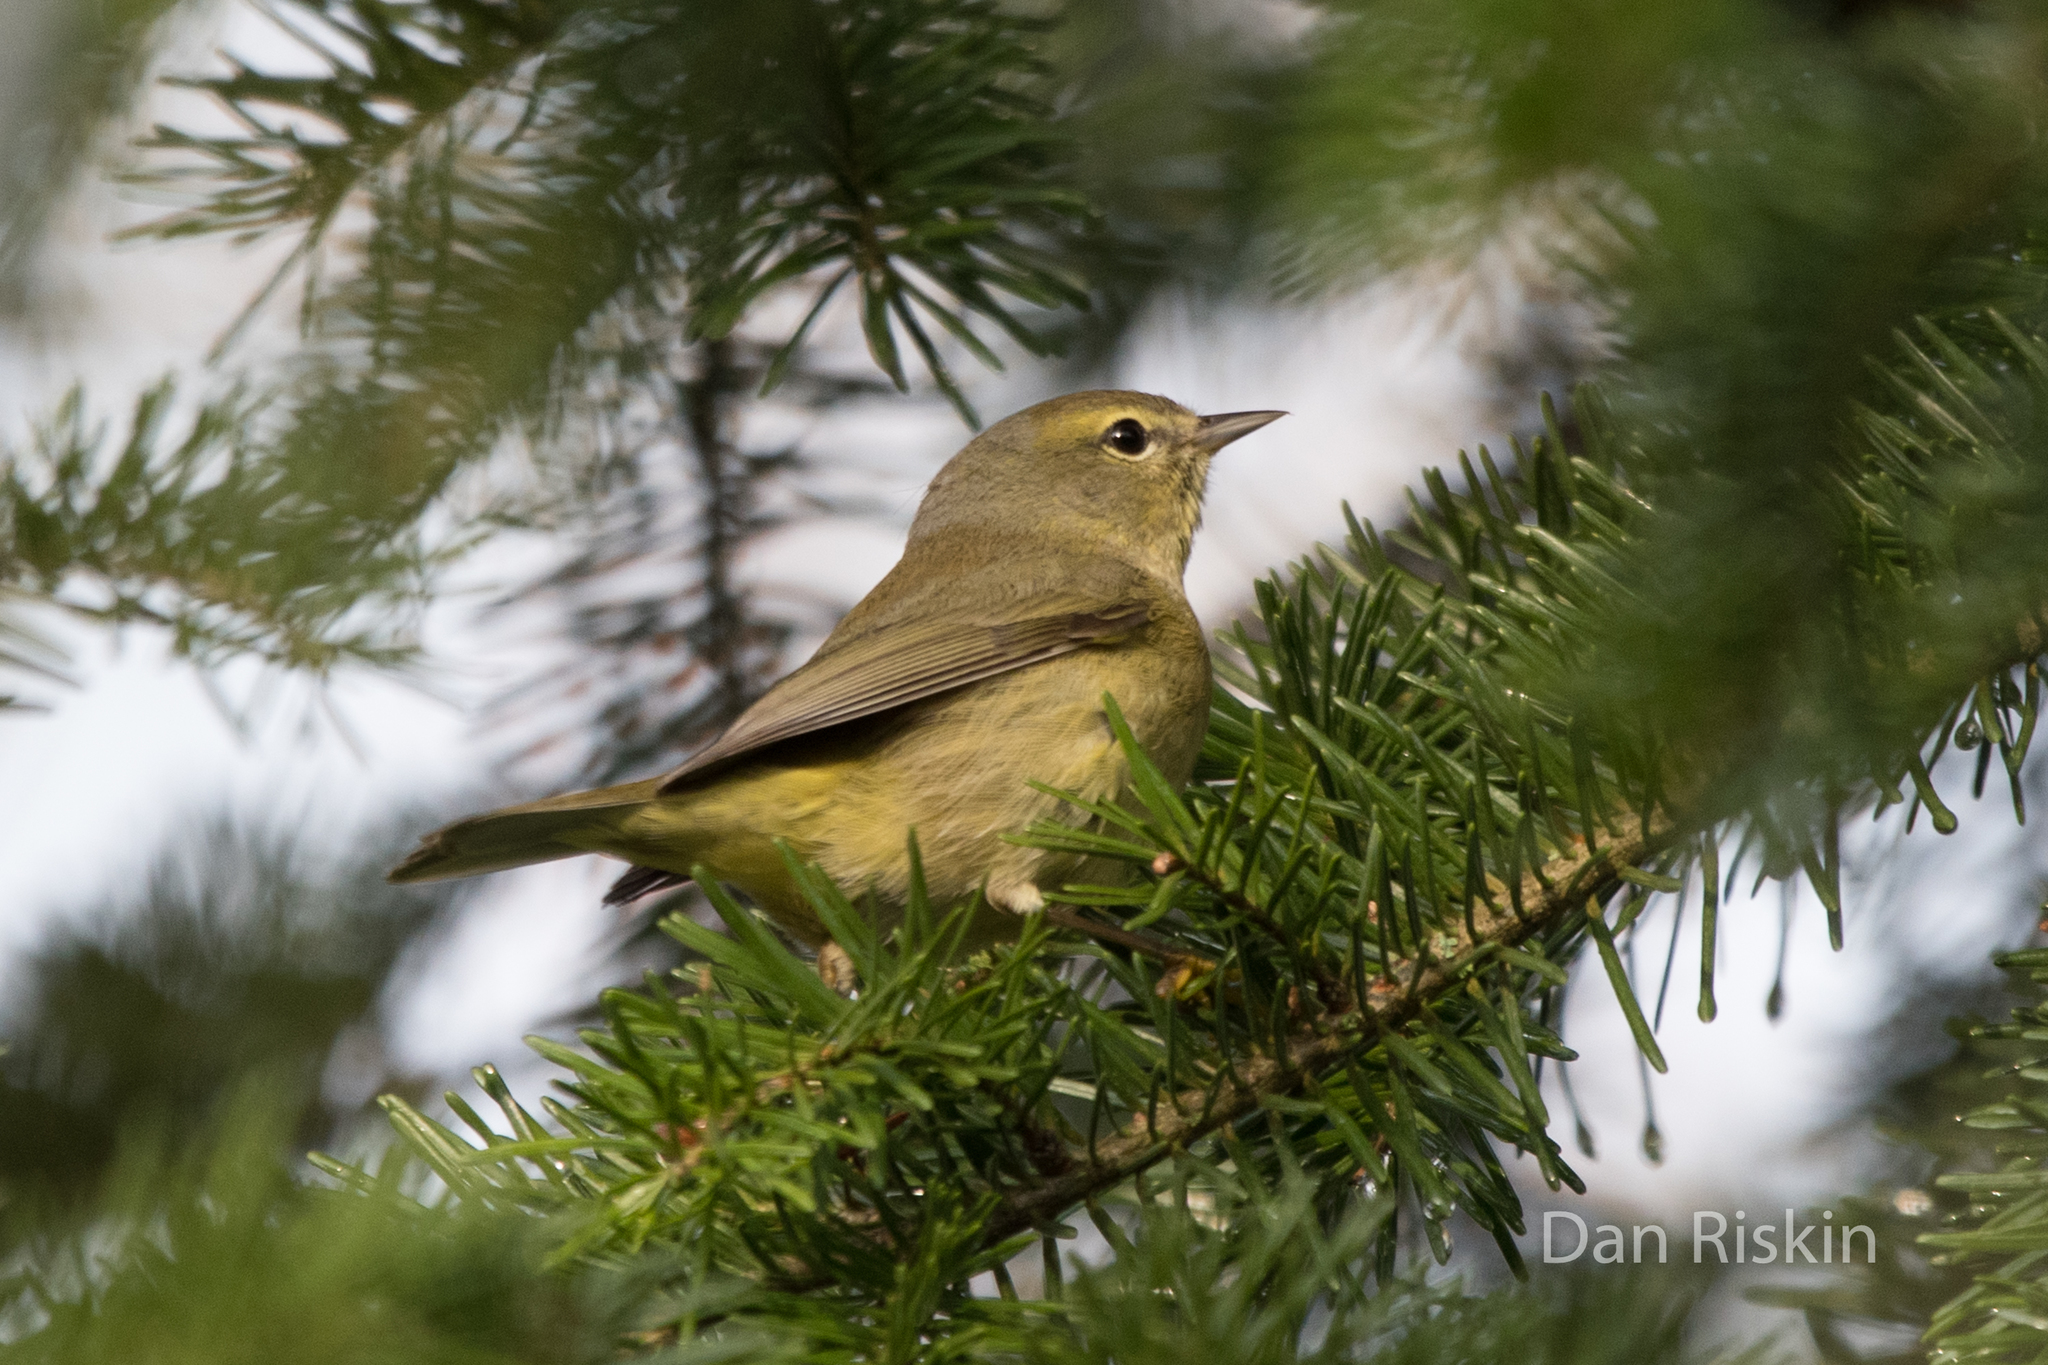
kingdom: Animalia
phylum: Chordata
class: Aves
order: Passeriformes
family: Parulidae
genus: Leiothlypis
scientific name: Leiothlypis celata
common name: Orange-crowned warbler
